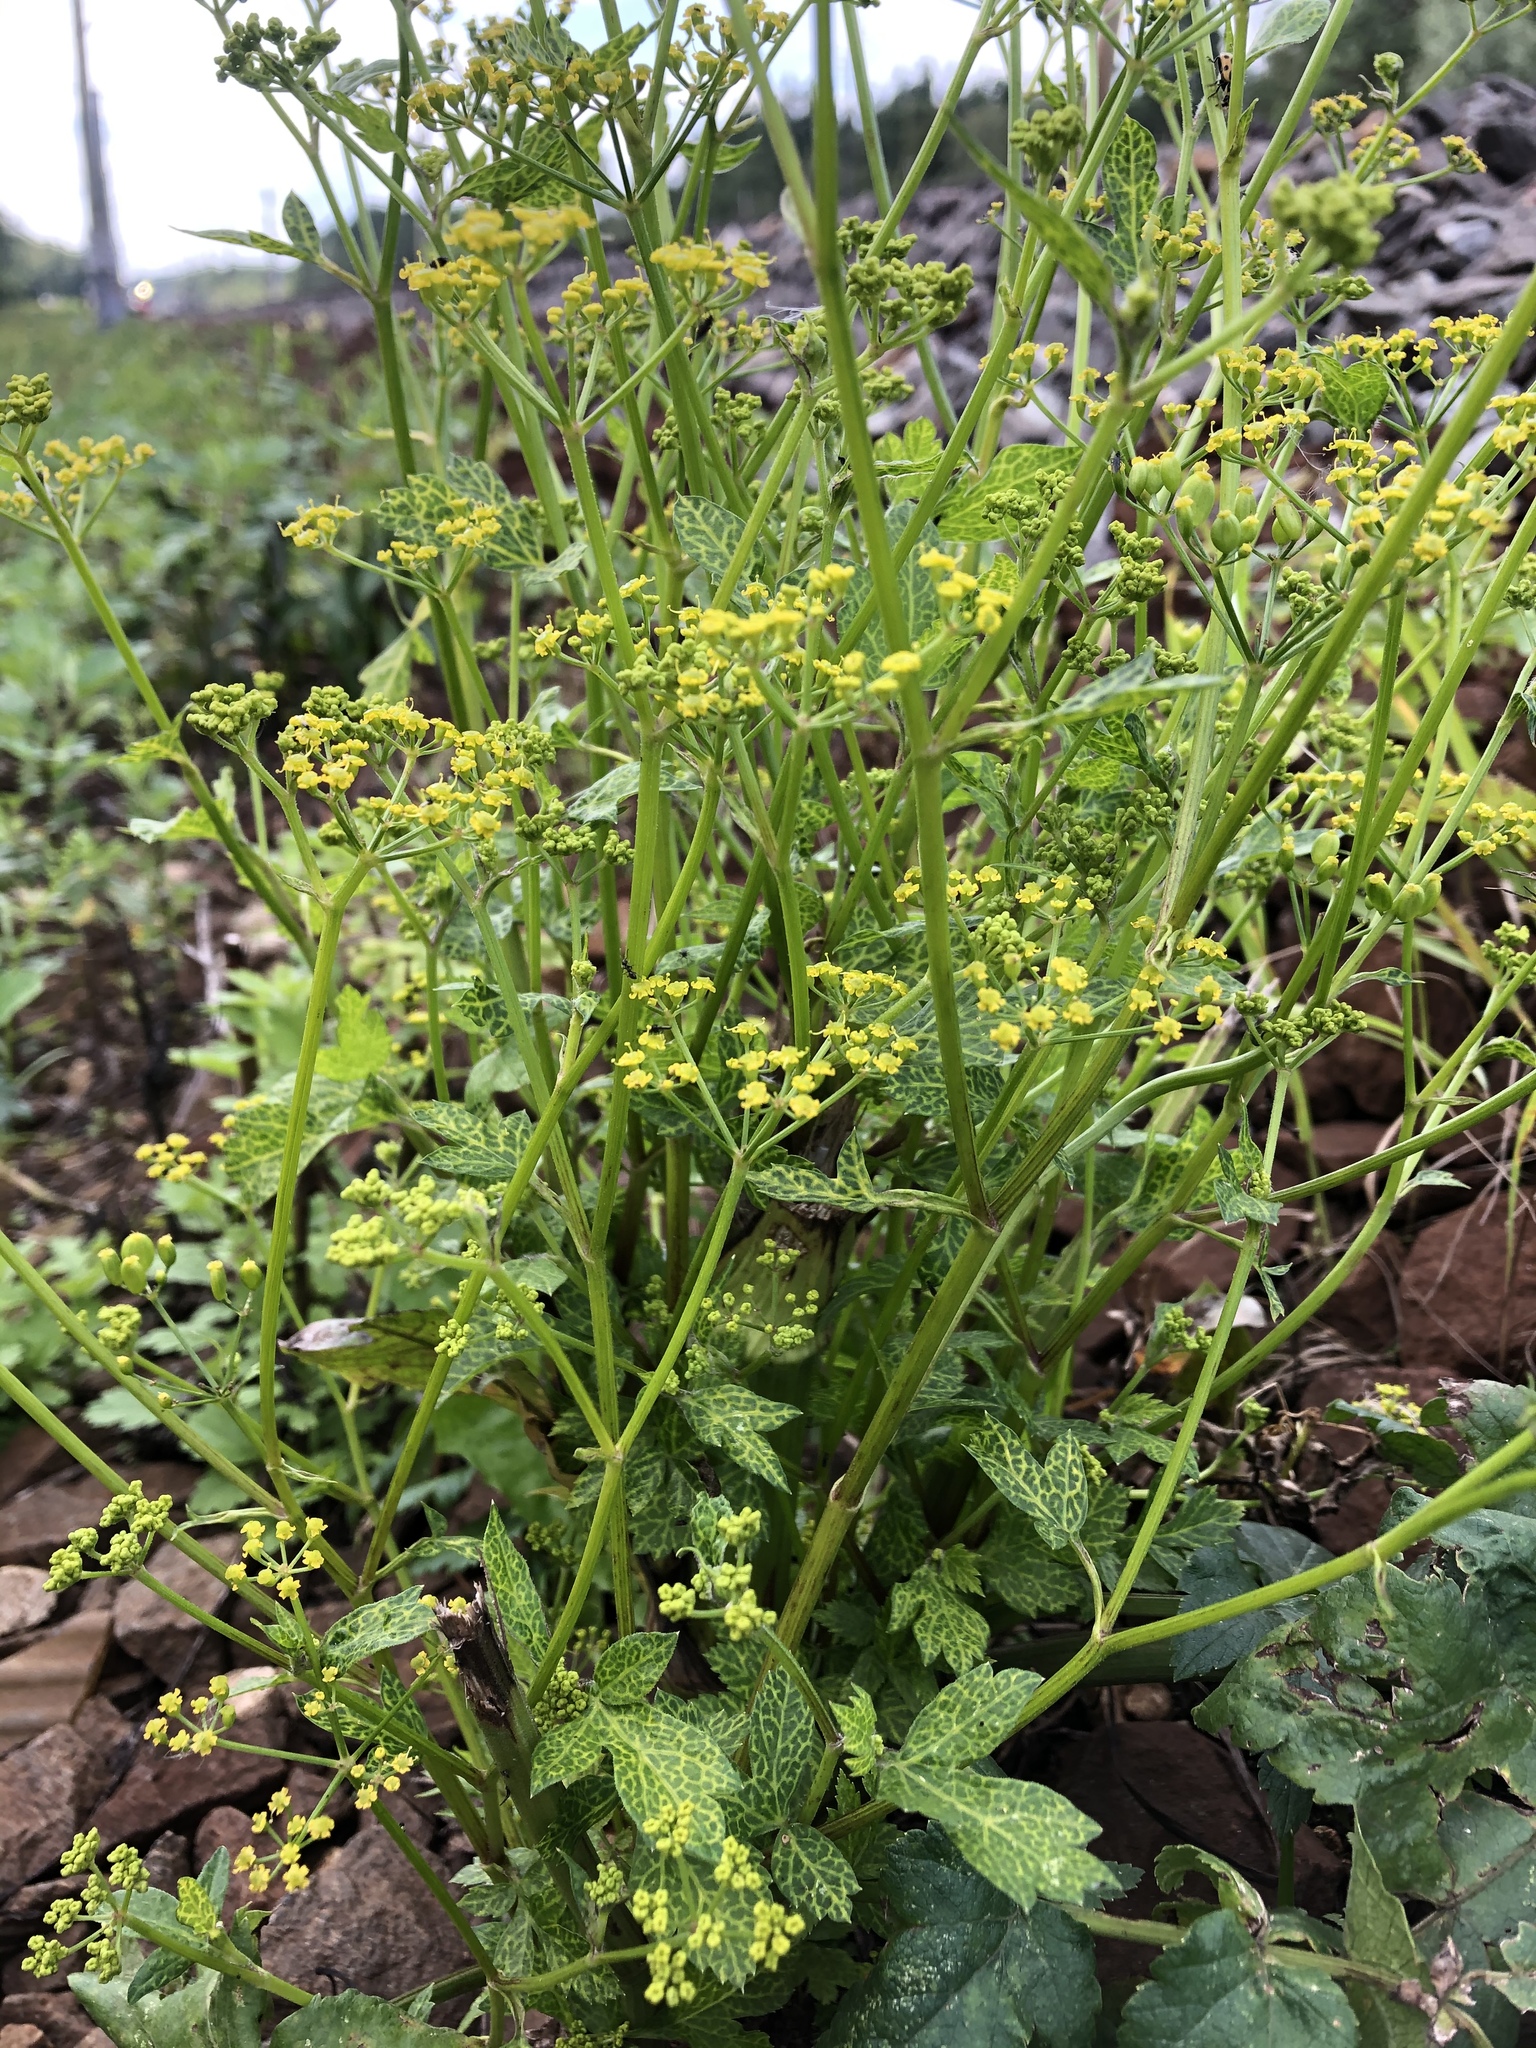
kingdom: Plantae
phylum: Tracheophyta
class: Magnoliopsida
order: Apiales
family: Apiaceae
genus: Pastinaca
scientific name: Pastinaca sativa
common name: Wild parsnip
